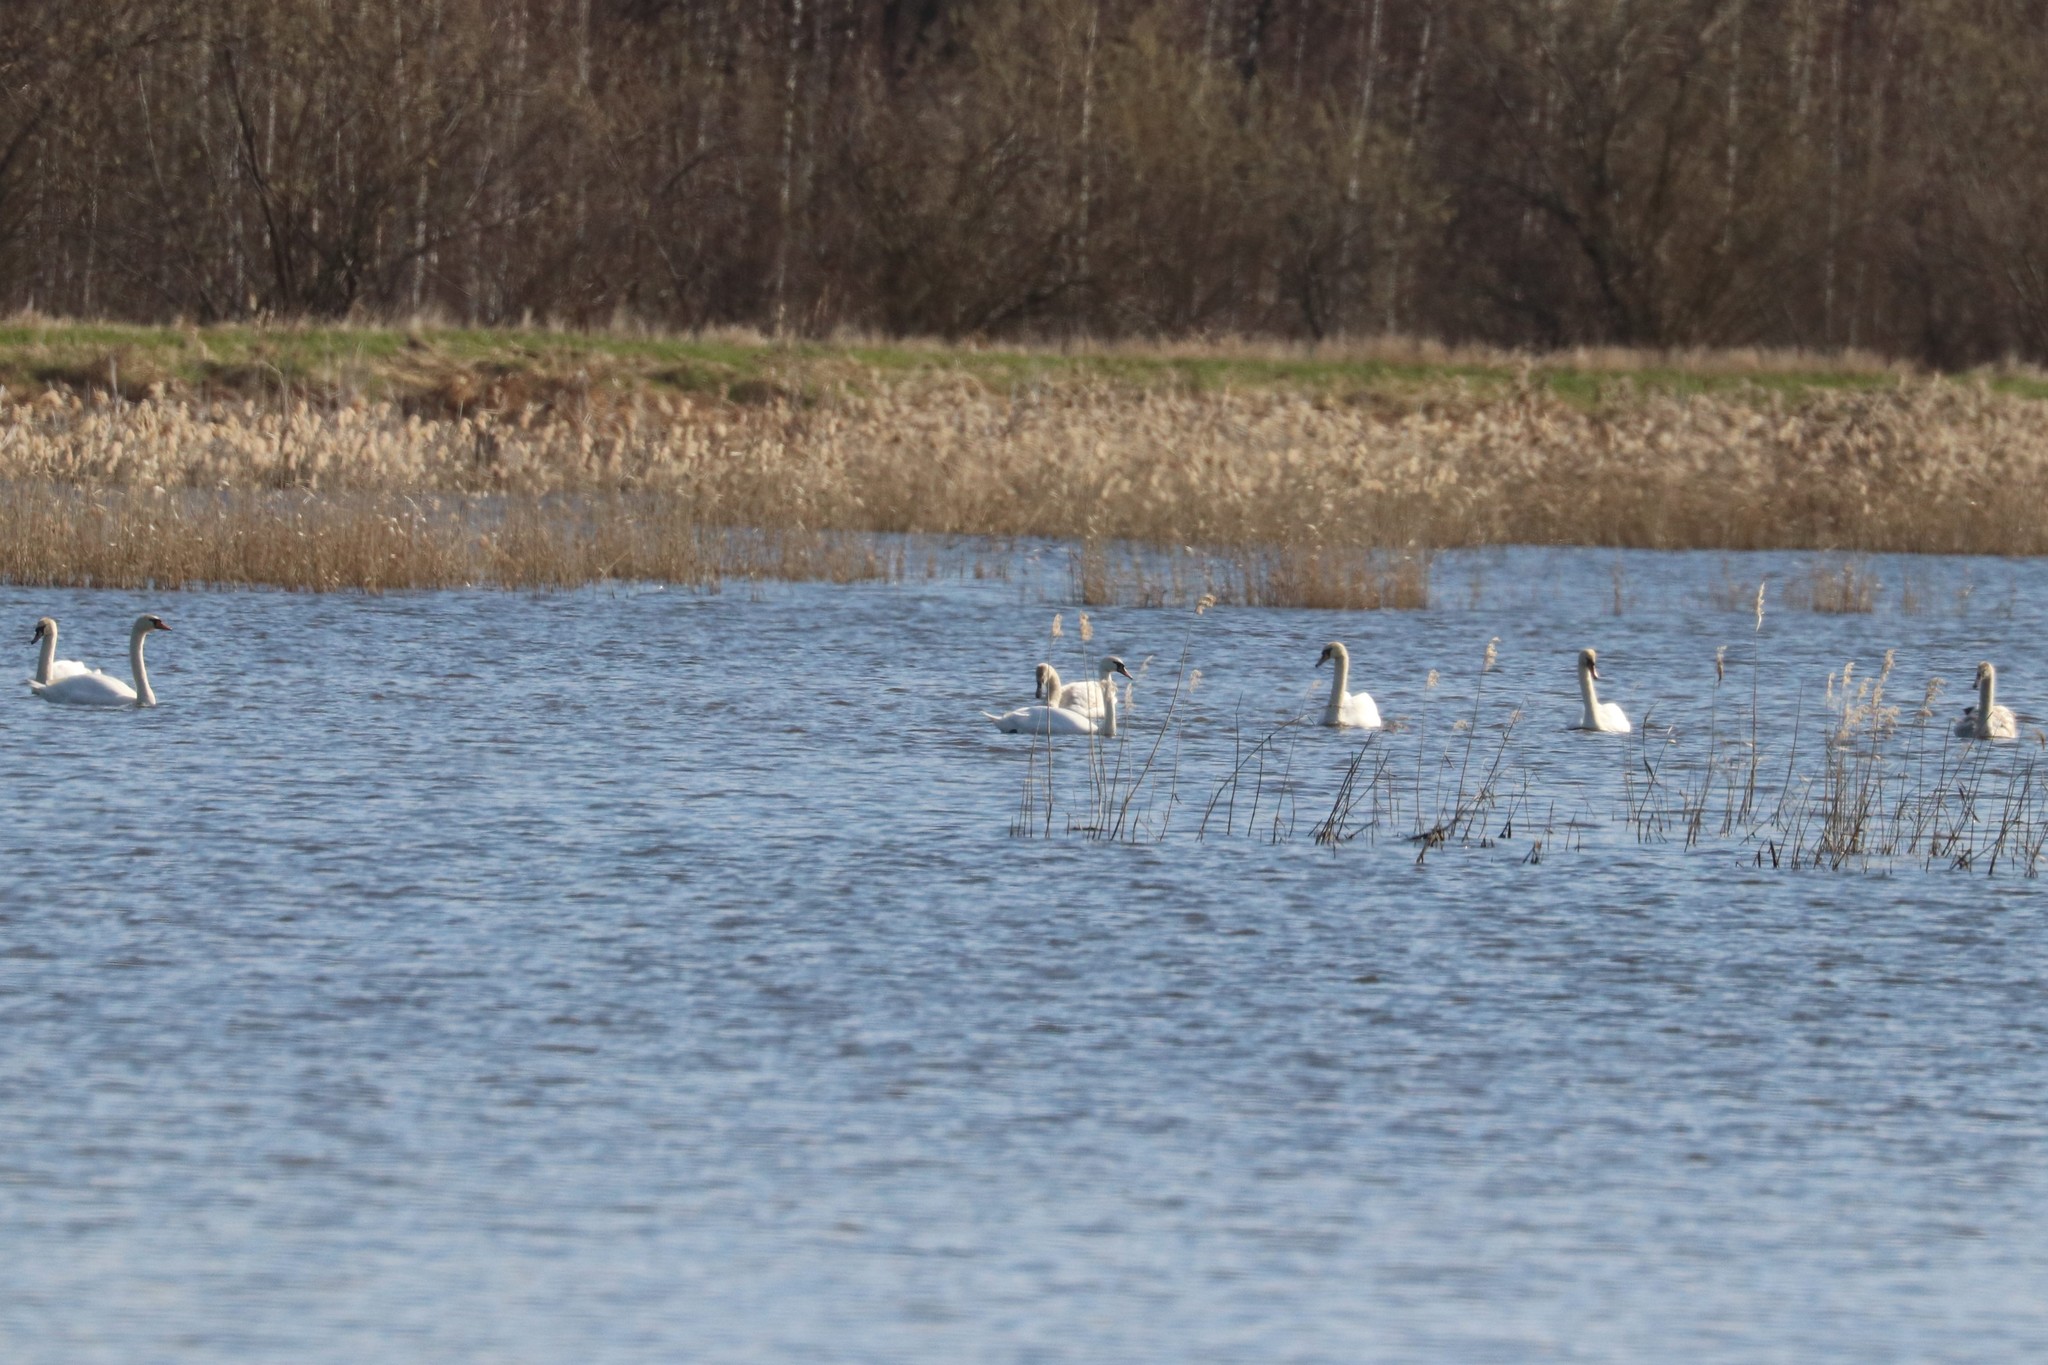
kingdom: Animalia
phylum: Chordata
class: Aves
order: Anseriformes
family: Anatidae
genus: Cygnus
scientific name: Cygnus olor
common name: Mute swan
